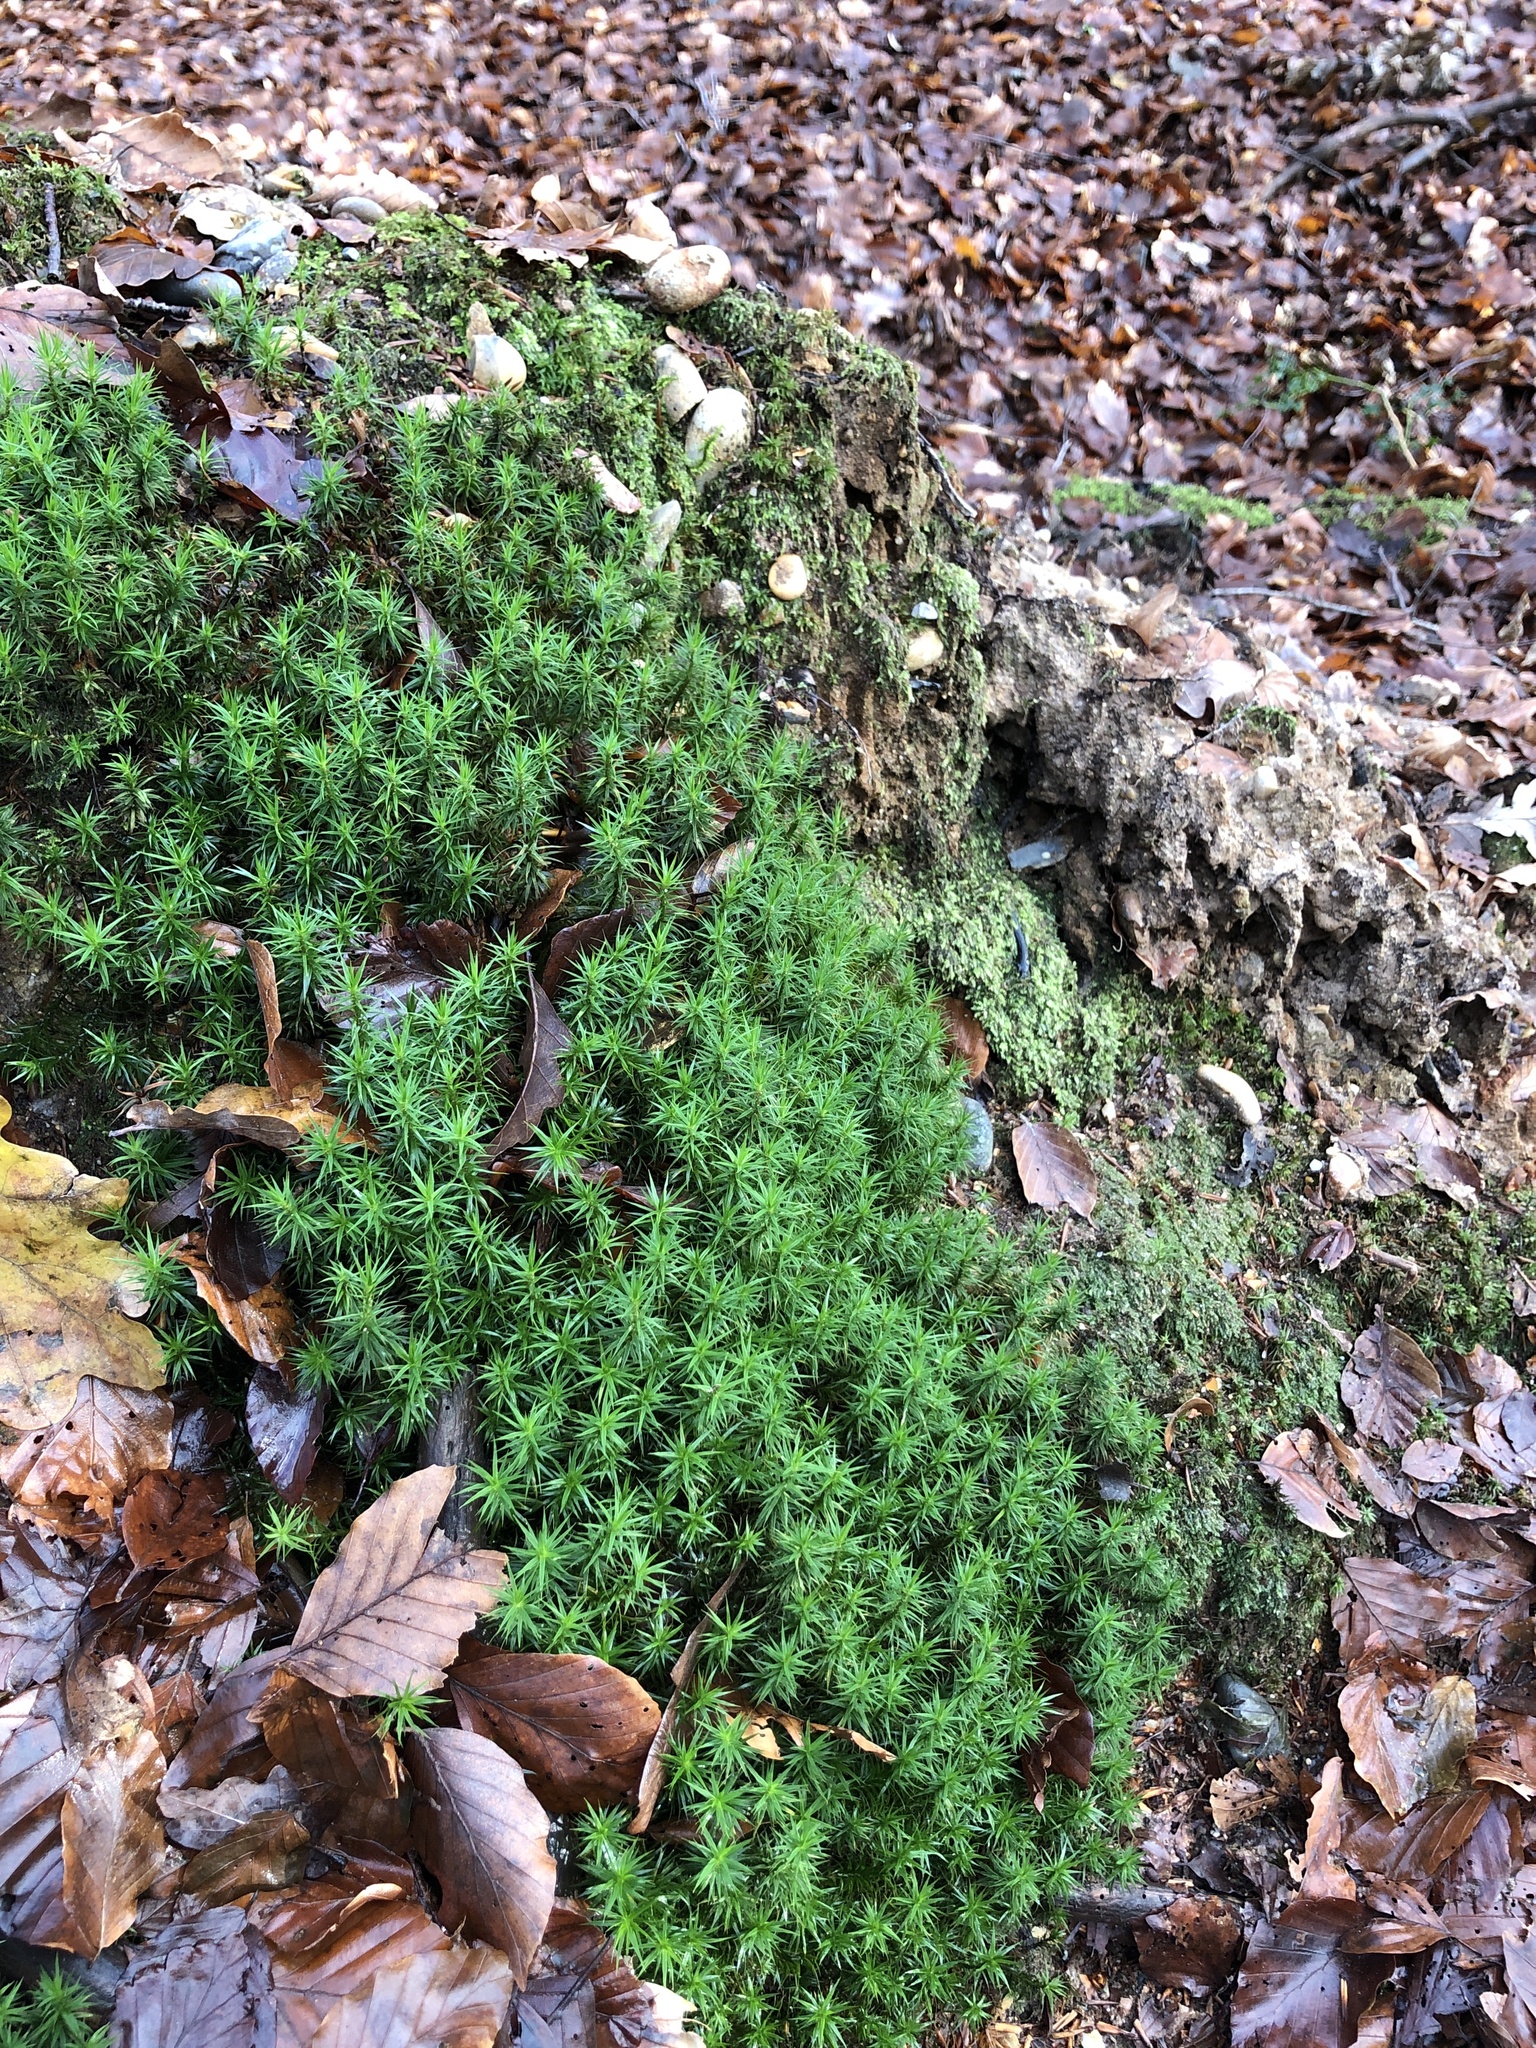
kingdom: Plantae
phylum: Bryophyta
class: Polytrichopsida
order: Polytrichales
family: Polytrichaceae
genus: Polytrichum
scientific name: Polytrichum formosum
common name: Bank haircap moss
